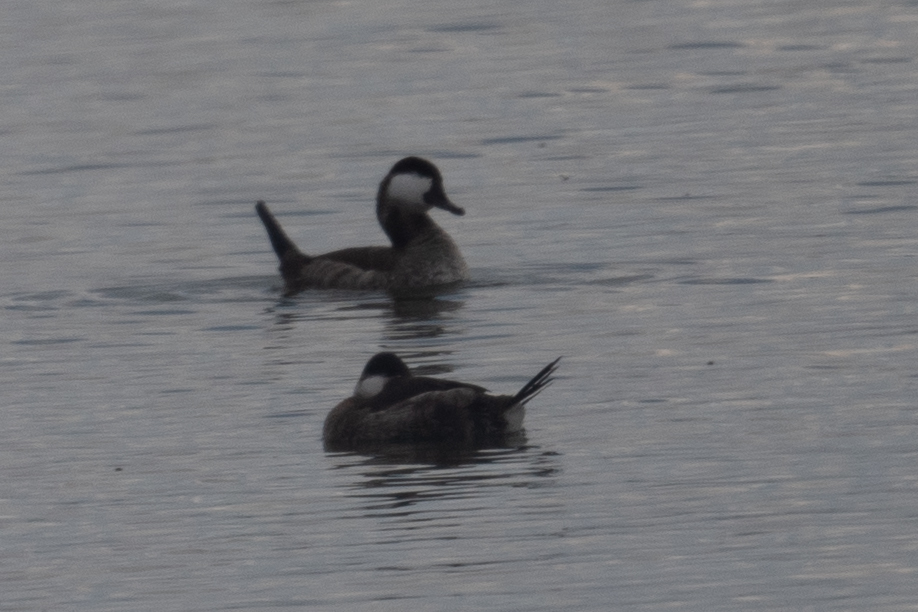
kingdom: Animalia
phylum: Chordata
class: Aves
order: Anseriformes
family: Anatidae
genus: Oxyura
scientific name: Oxyura jamaicensis
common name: Ruddy duck
